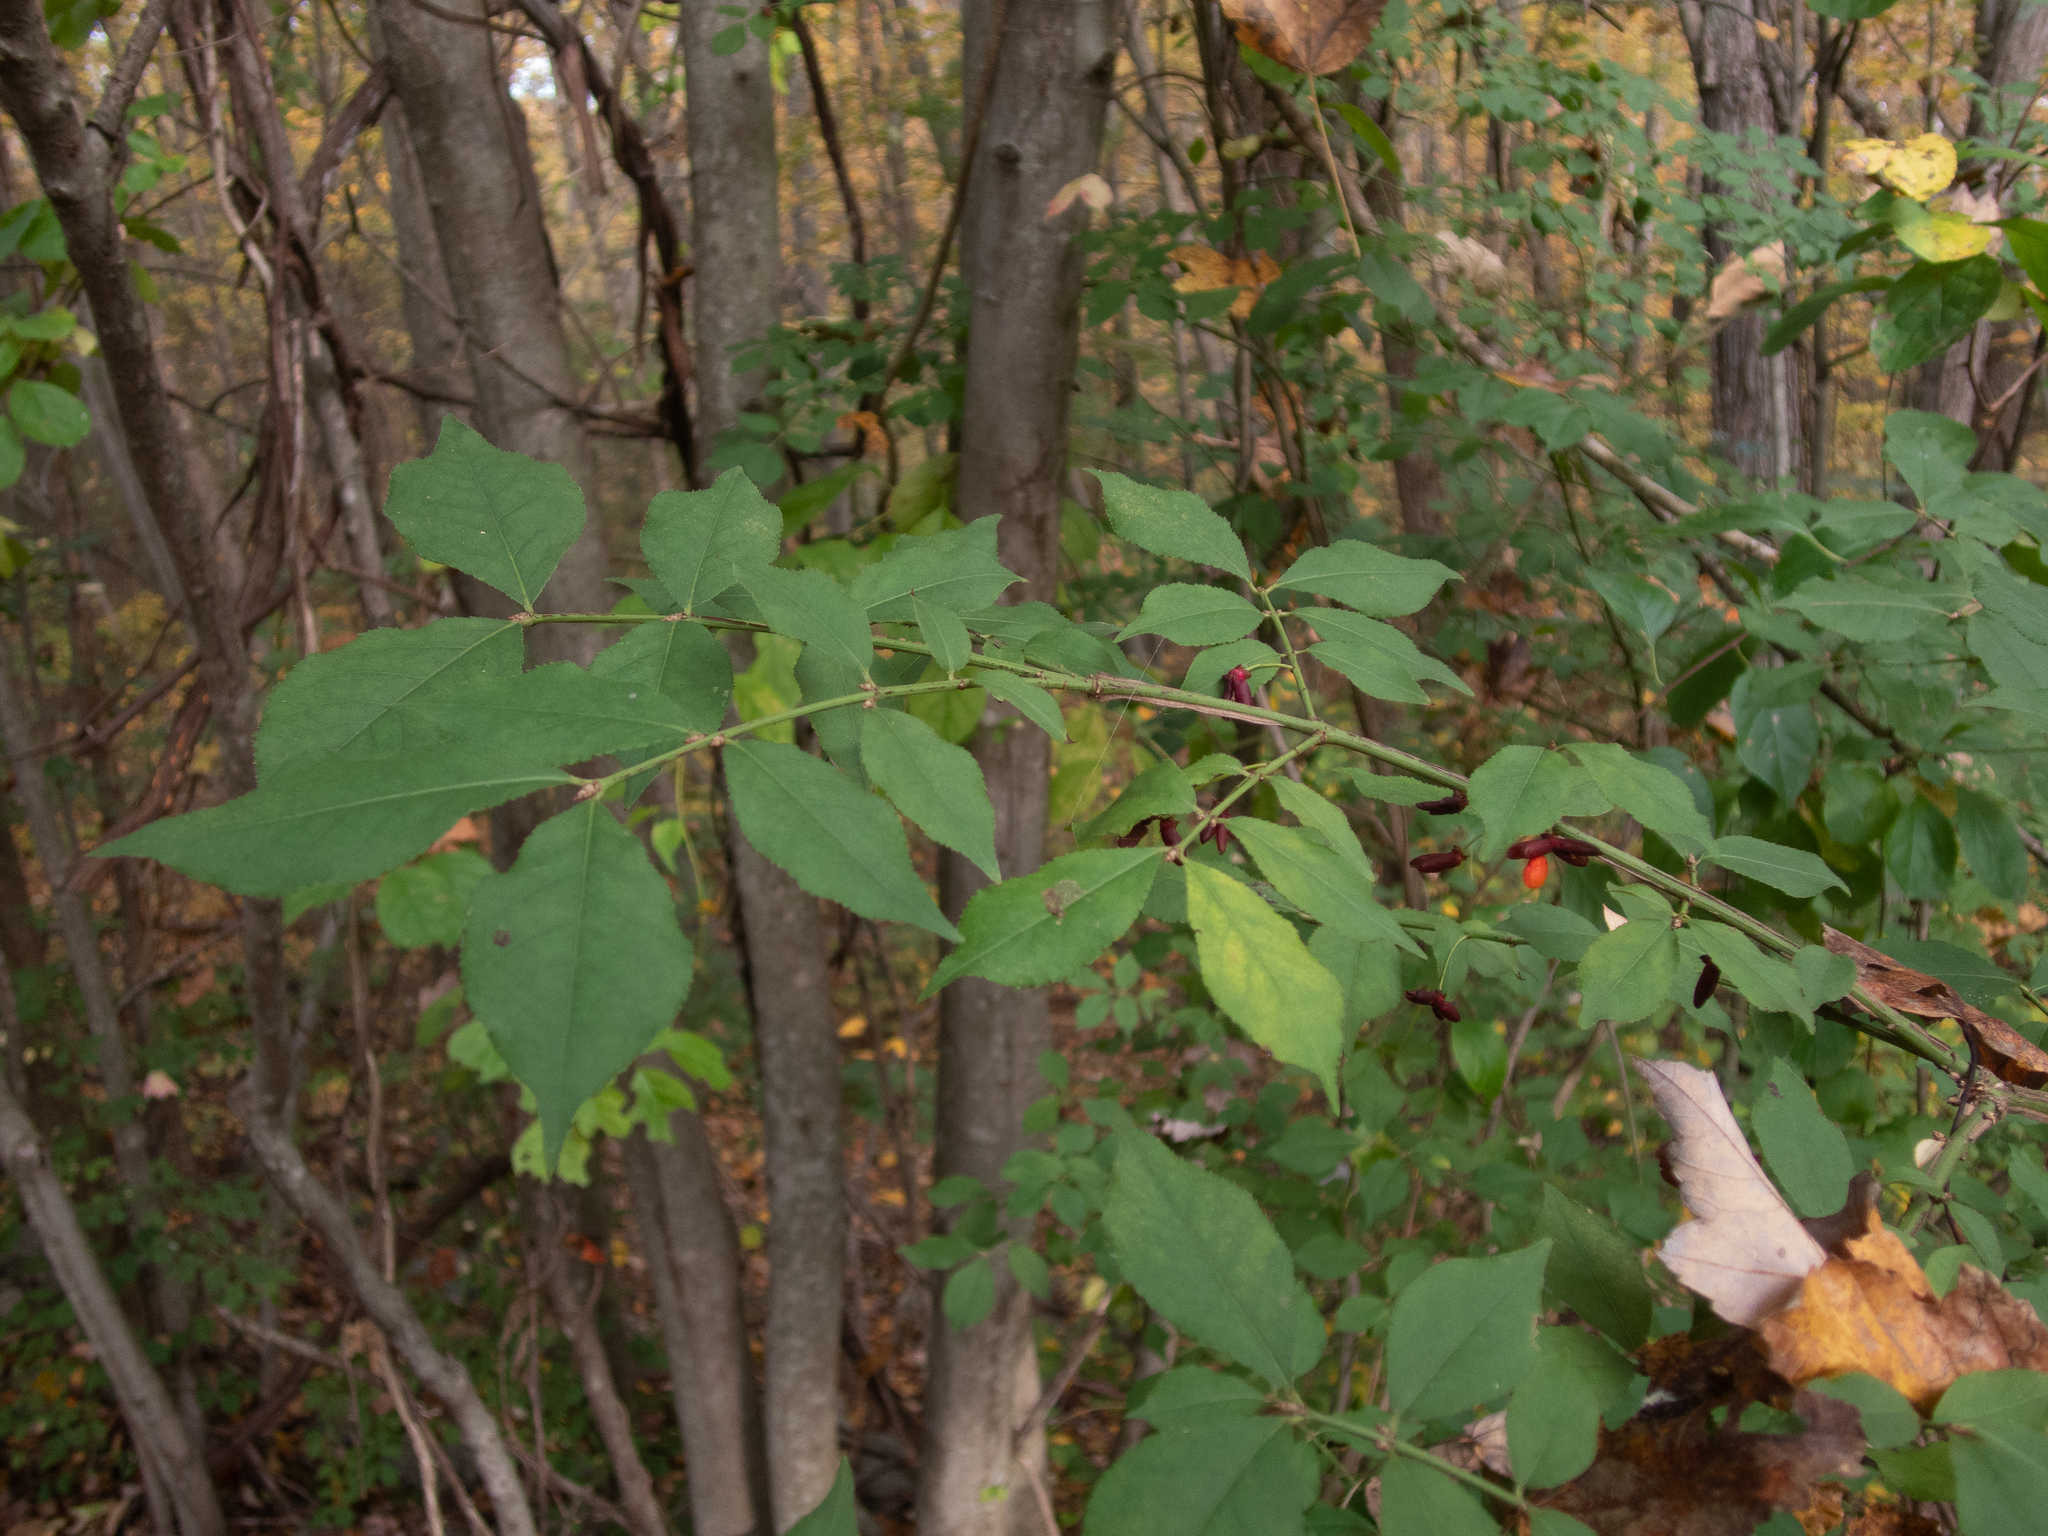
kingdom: Plantae
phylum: Tracheophyta
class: Magnoliopsida
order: Celastrales
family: Celastraceae
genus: Euonymus
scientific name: Euonymus alatus
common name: Winged euonymus
